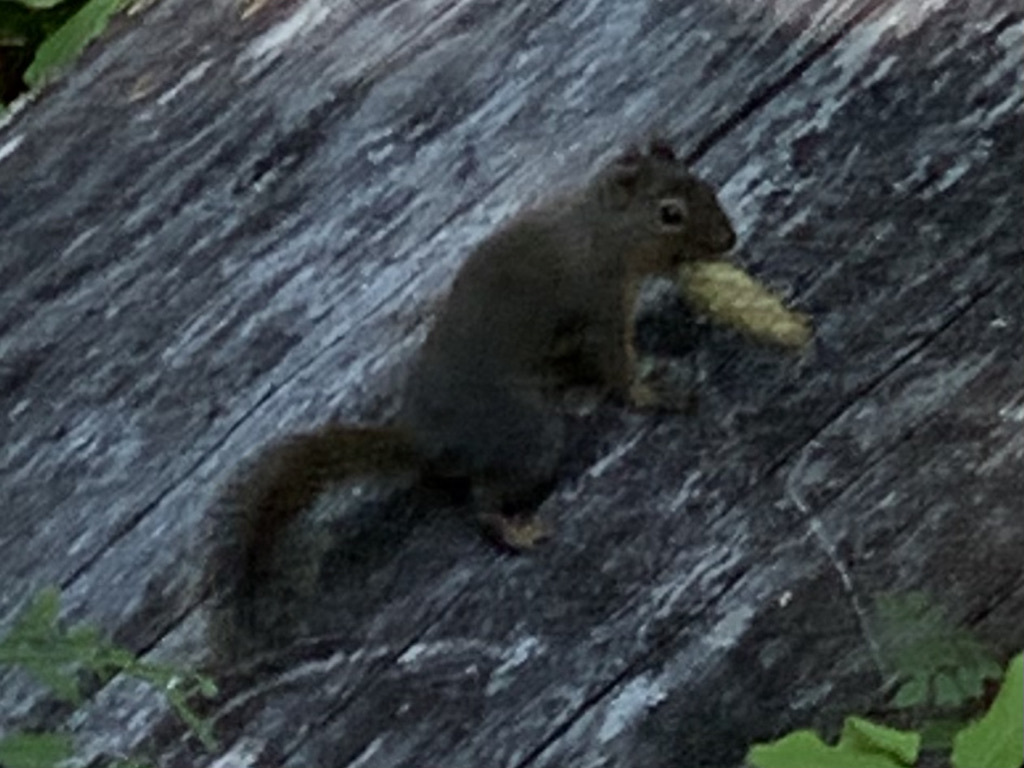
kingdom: Animalia
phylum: Chordata
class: Mammalia
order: Rodentia
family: Sciuridae
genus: Tamiasciurus
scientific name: Tamiasciurus douglasii
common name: Douglas's squirrel
